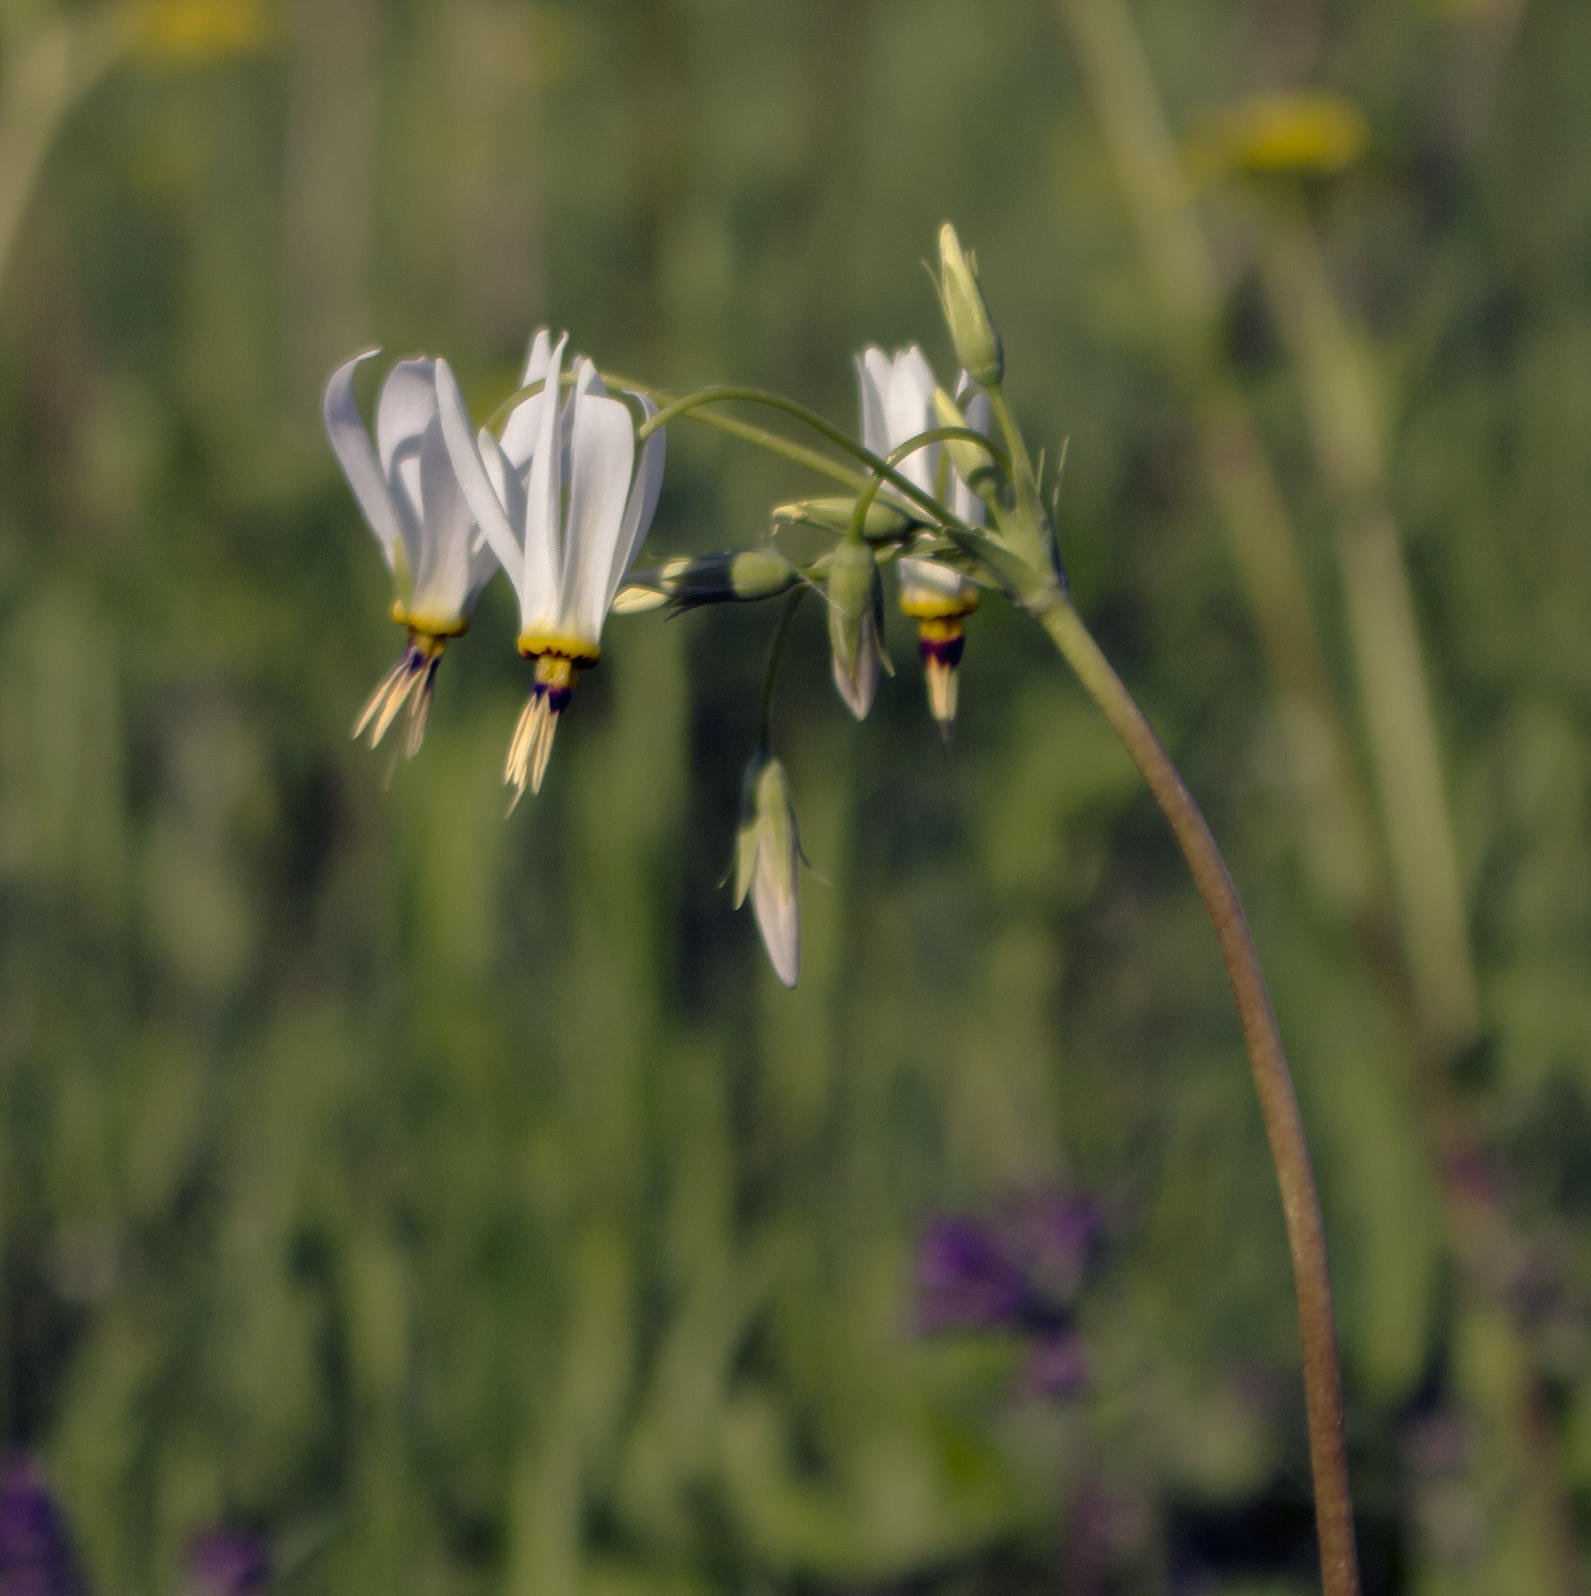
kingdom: Plantae
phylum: Tracheophyta
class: Magnoliopsida
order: Ericales
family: Primulaceae
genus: Dodecatheon
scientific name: Dodecatheon meadia
